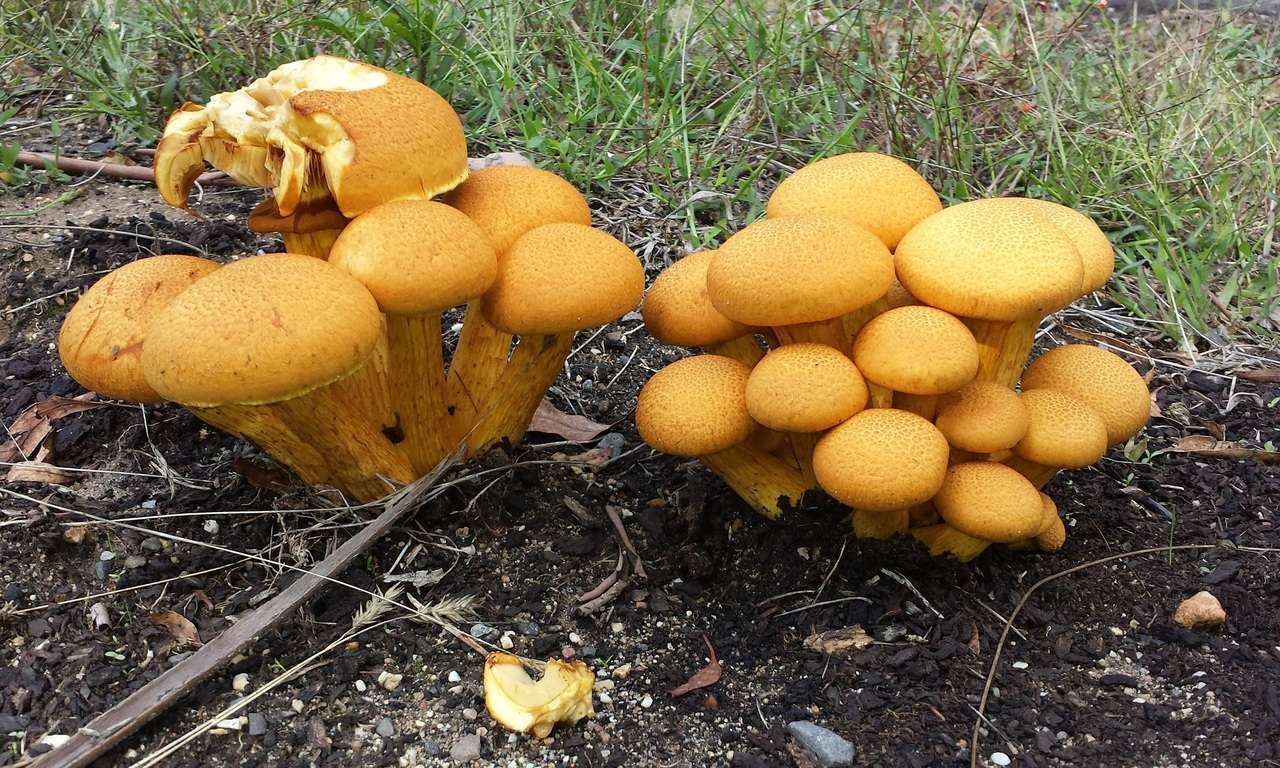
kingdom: Fungi
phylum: Basidiomycota
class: Agaricomycetes
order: Agaricales
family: Hymenogastraceae
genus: Gymnopilus
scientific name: Gymnopilus junonius
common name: Spectacular rustgill
